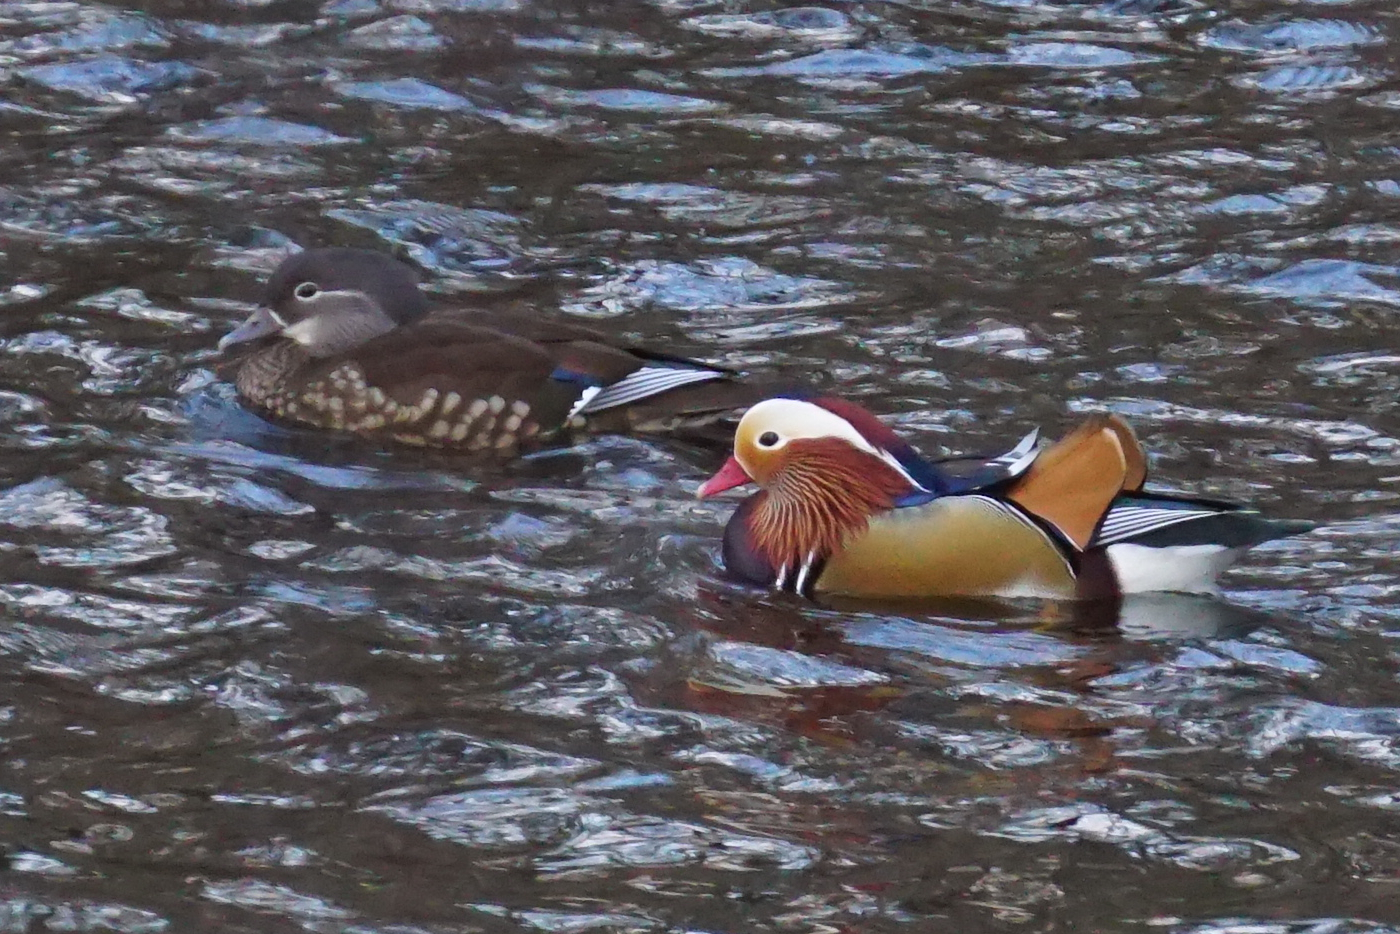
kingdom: Animalia
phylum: Chordata
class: Aves
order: Anseriformes
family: Anatidae
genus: Aix
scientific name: Aix galericulata
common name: Mandarin duck
